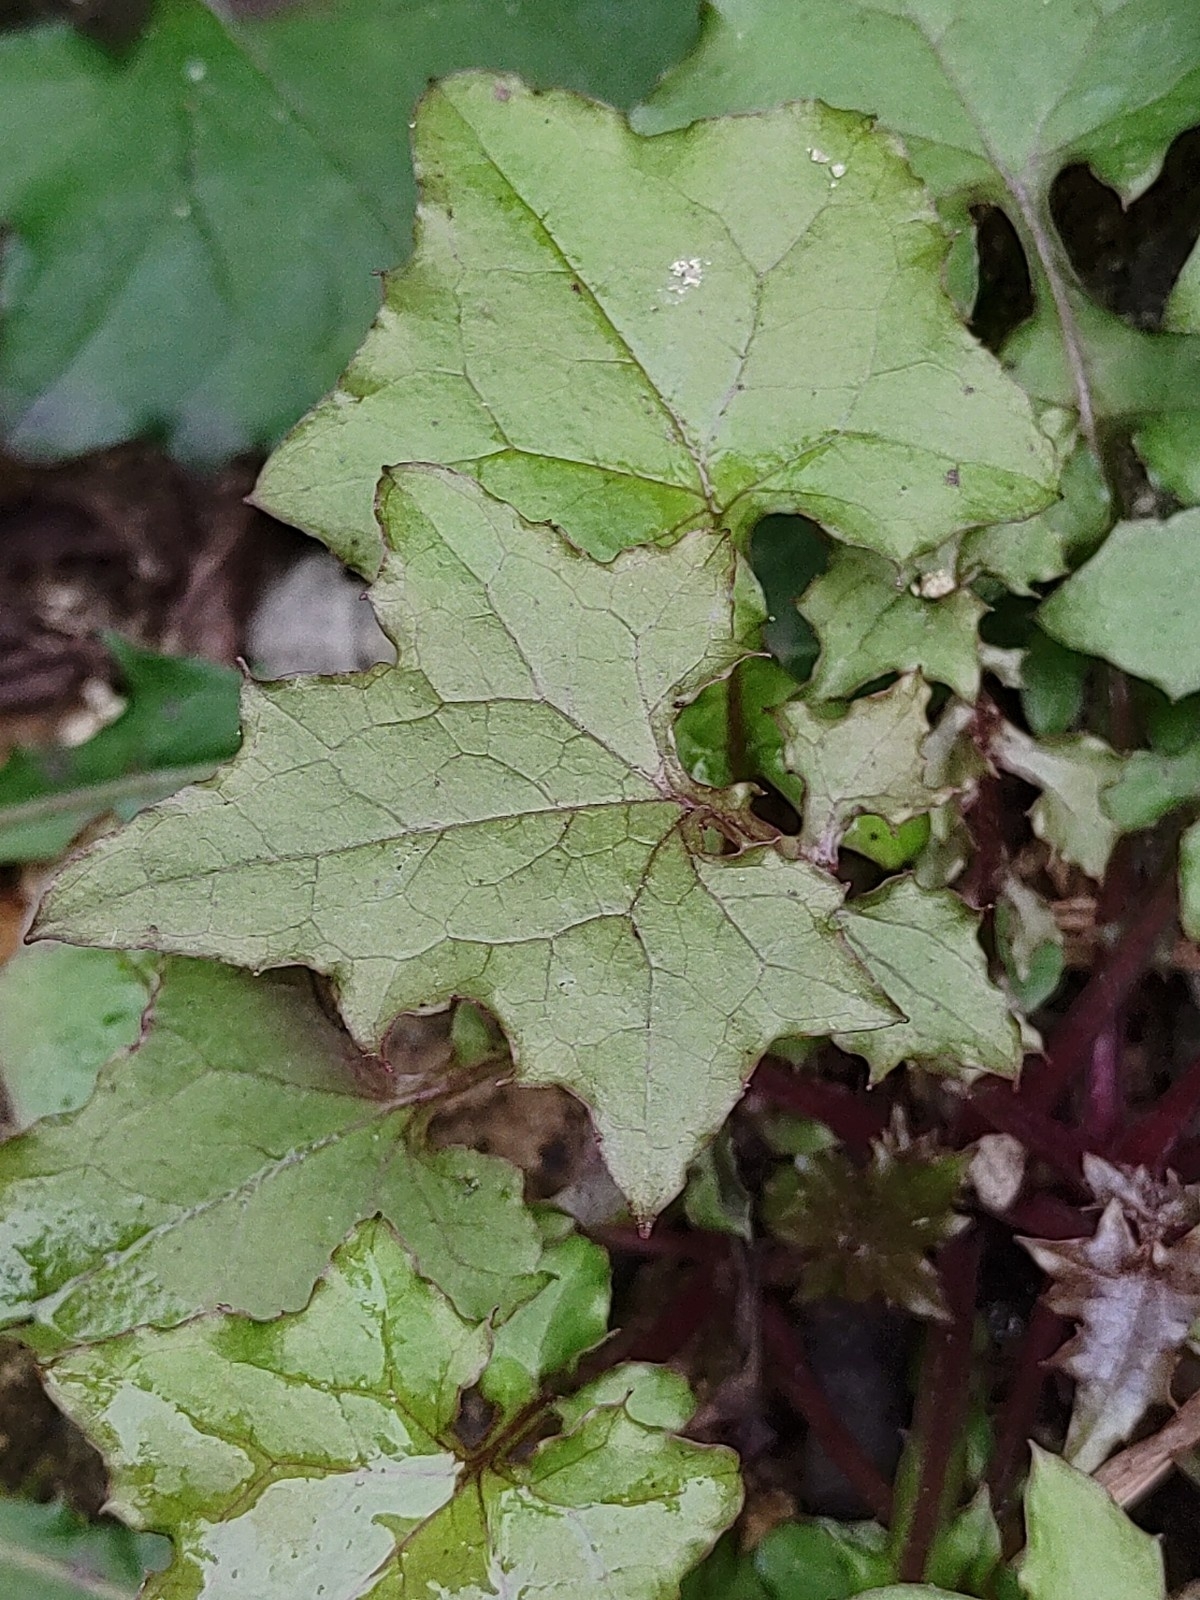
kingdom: Plantae
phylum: Tracheophyta
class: Magnoliopsida
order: Asterales
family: Asteraceae
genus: Mycelis
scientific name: Mycelis muralis
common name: Wall lettuce
